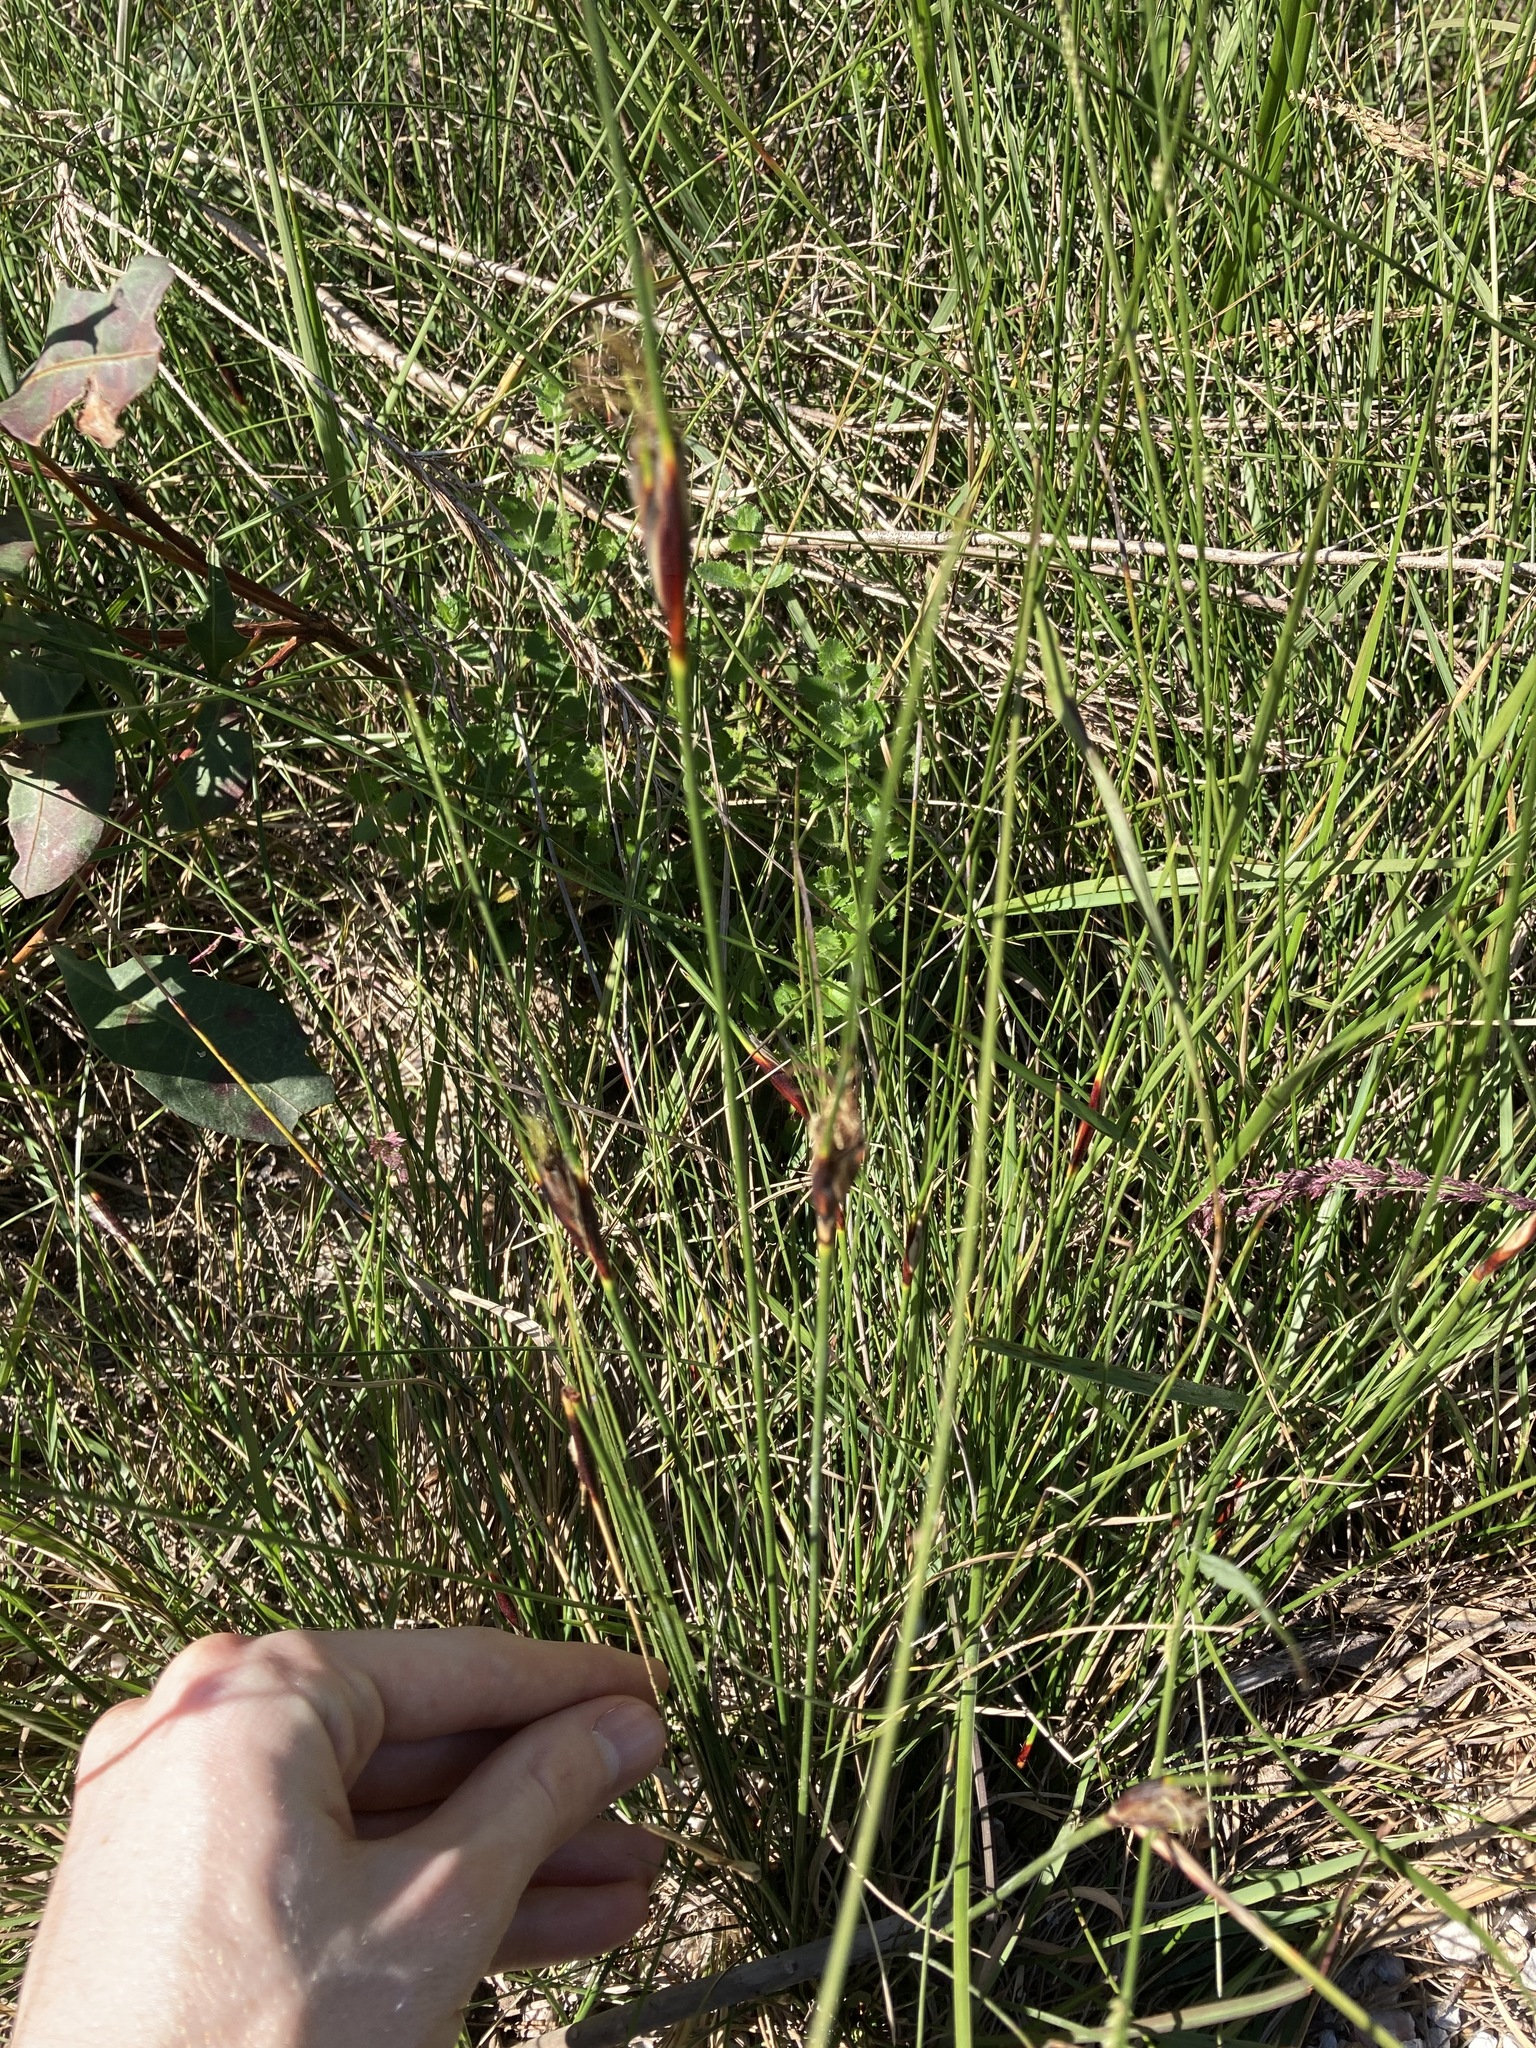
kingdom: Plantae
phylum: Tracheophyta
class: Liliopsida
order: Poales
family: Cyperaceae
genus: Ptilothrix
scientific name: Ptilothrix deusta
